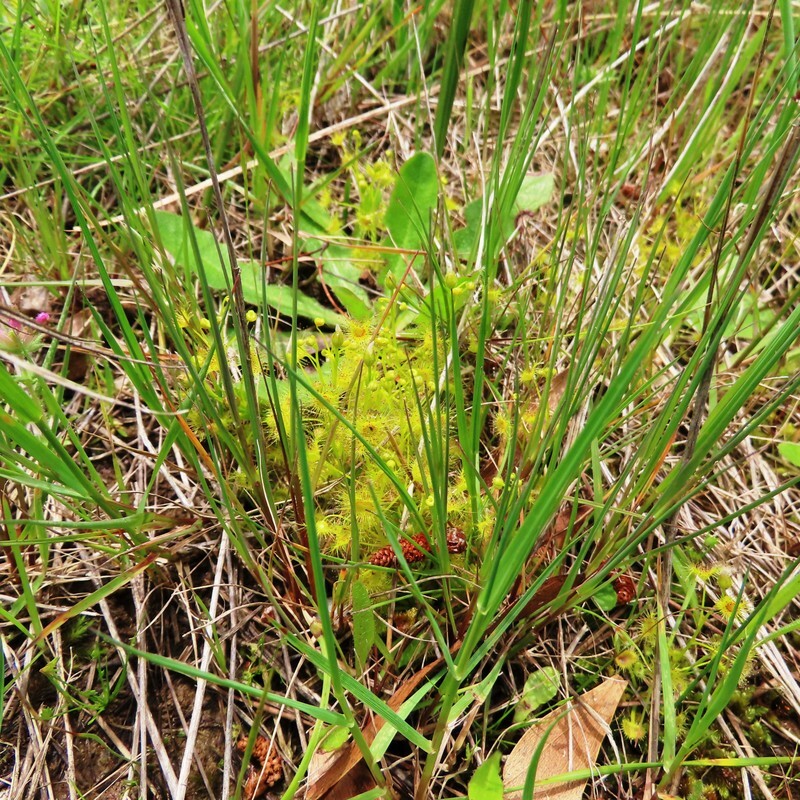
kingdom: Plantae
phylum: Tracheophyta
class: Magnoliopsida
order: Caryophyllales
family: Droseraceae
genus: Drosera
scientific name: Drosera hookeri
